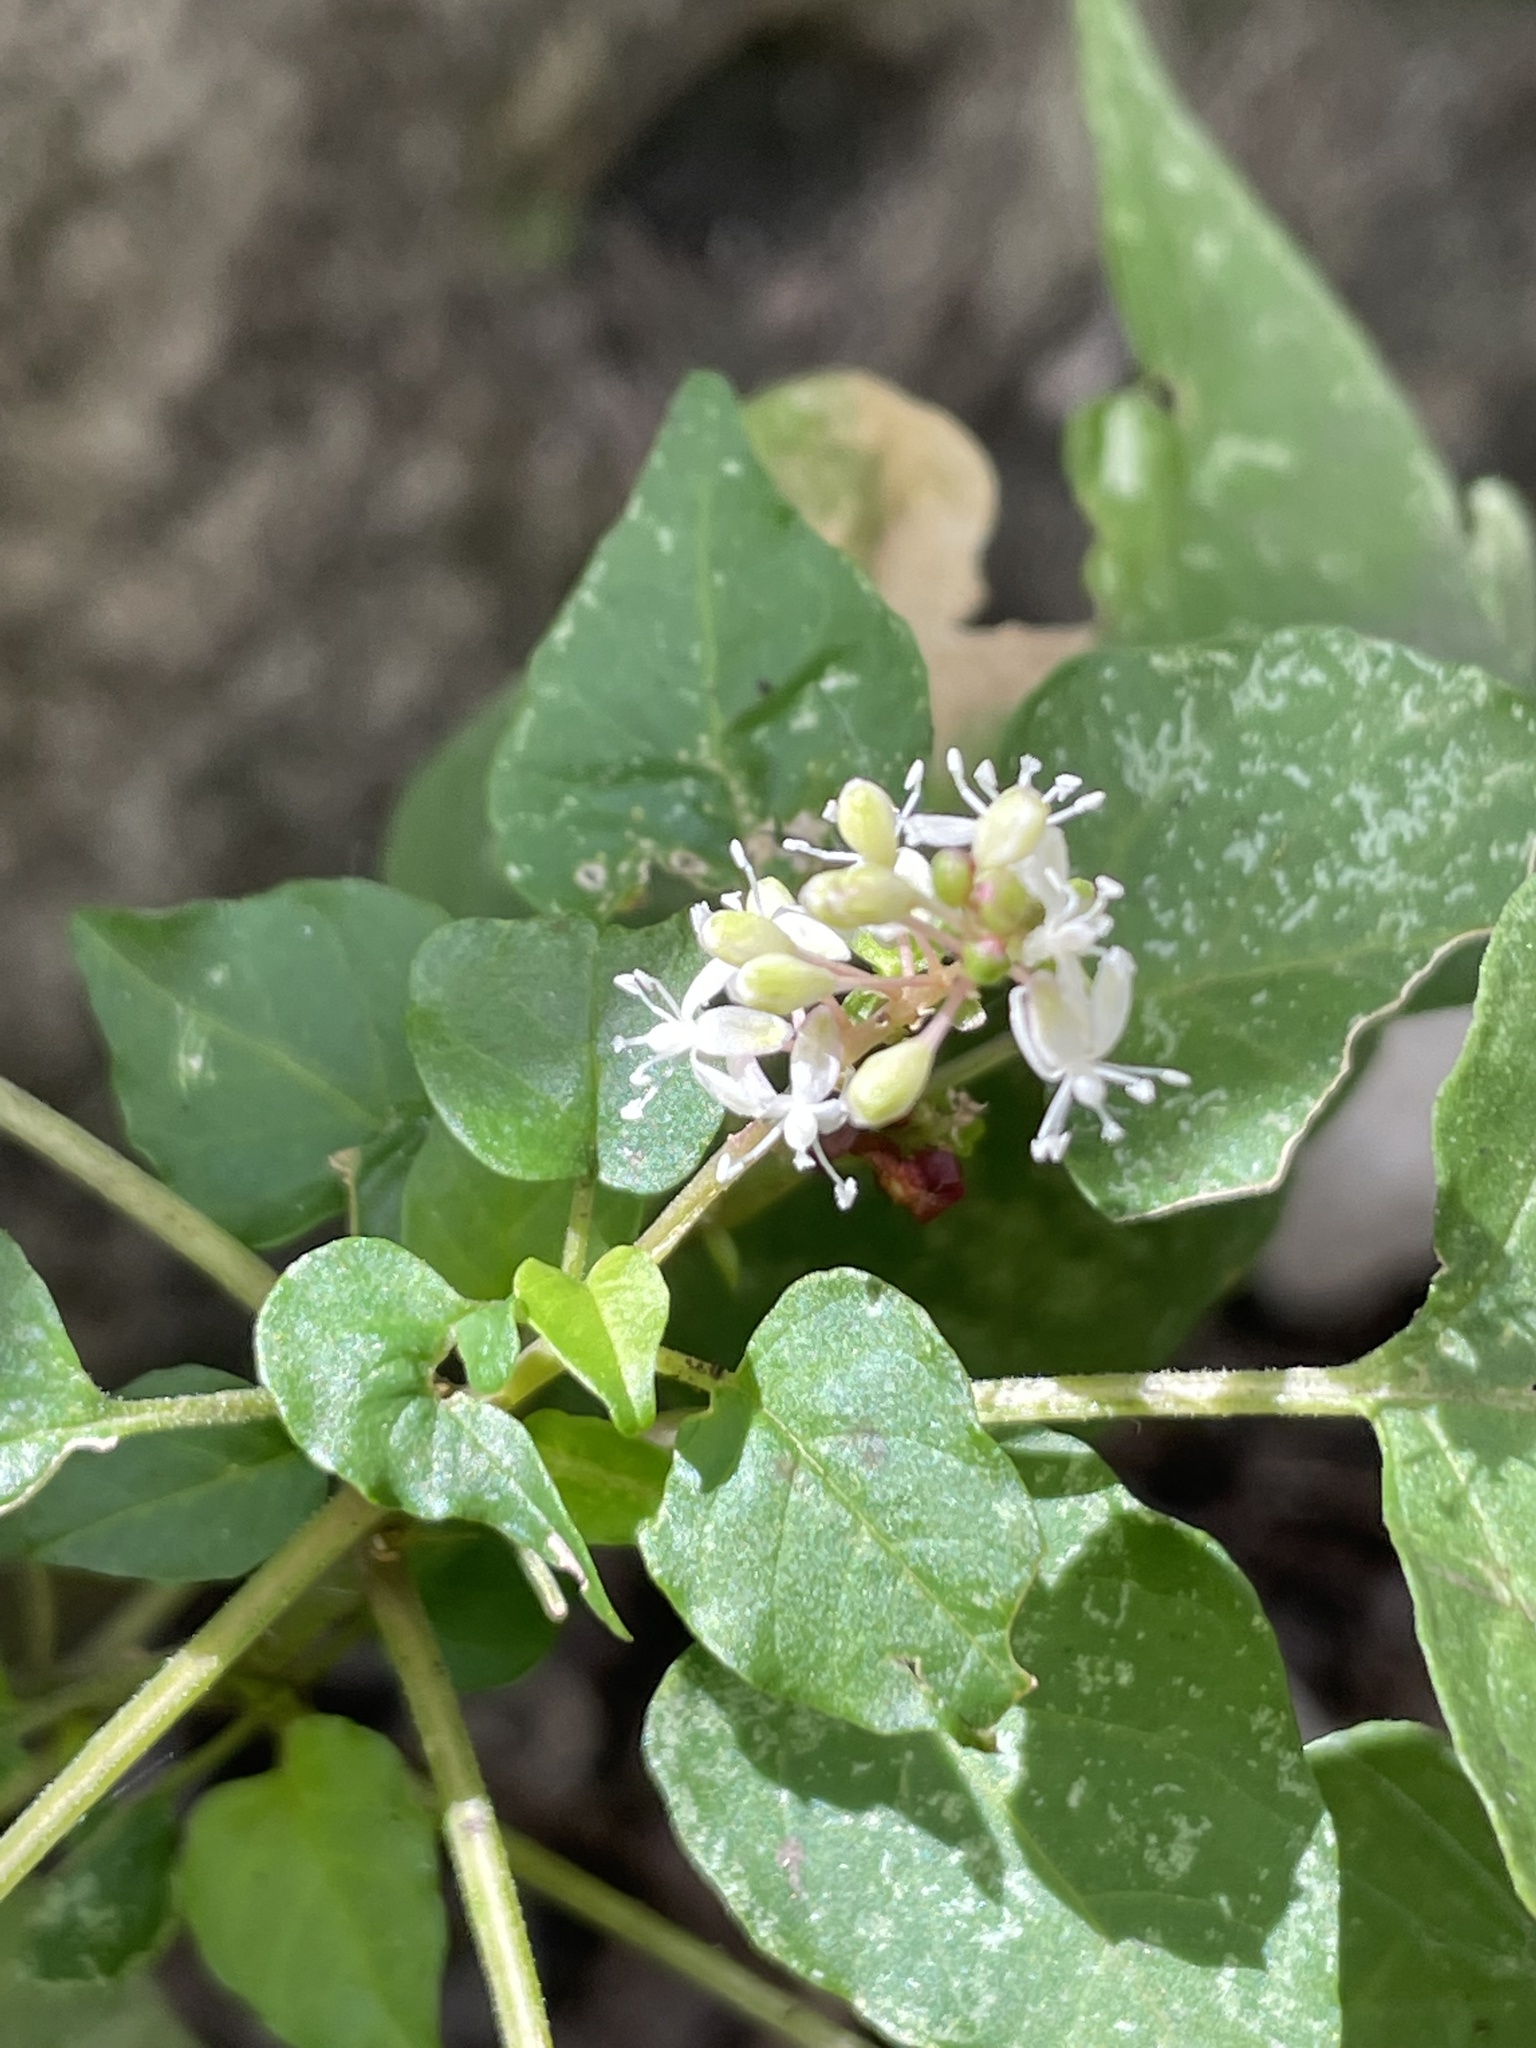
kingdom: Plantae
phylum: Tracheophyta
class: Magnoliopsida
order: Caryophyllales
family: Phytolaccaceae
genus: Rivina
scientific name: Rivina humilis
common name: Rougeplant
